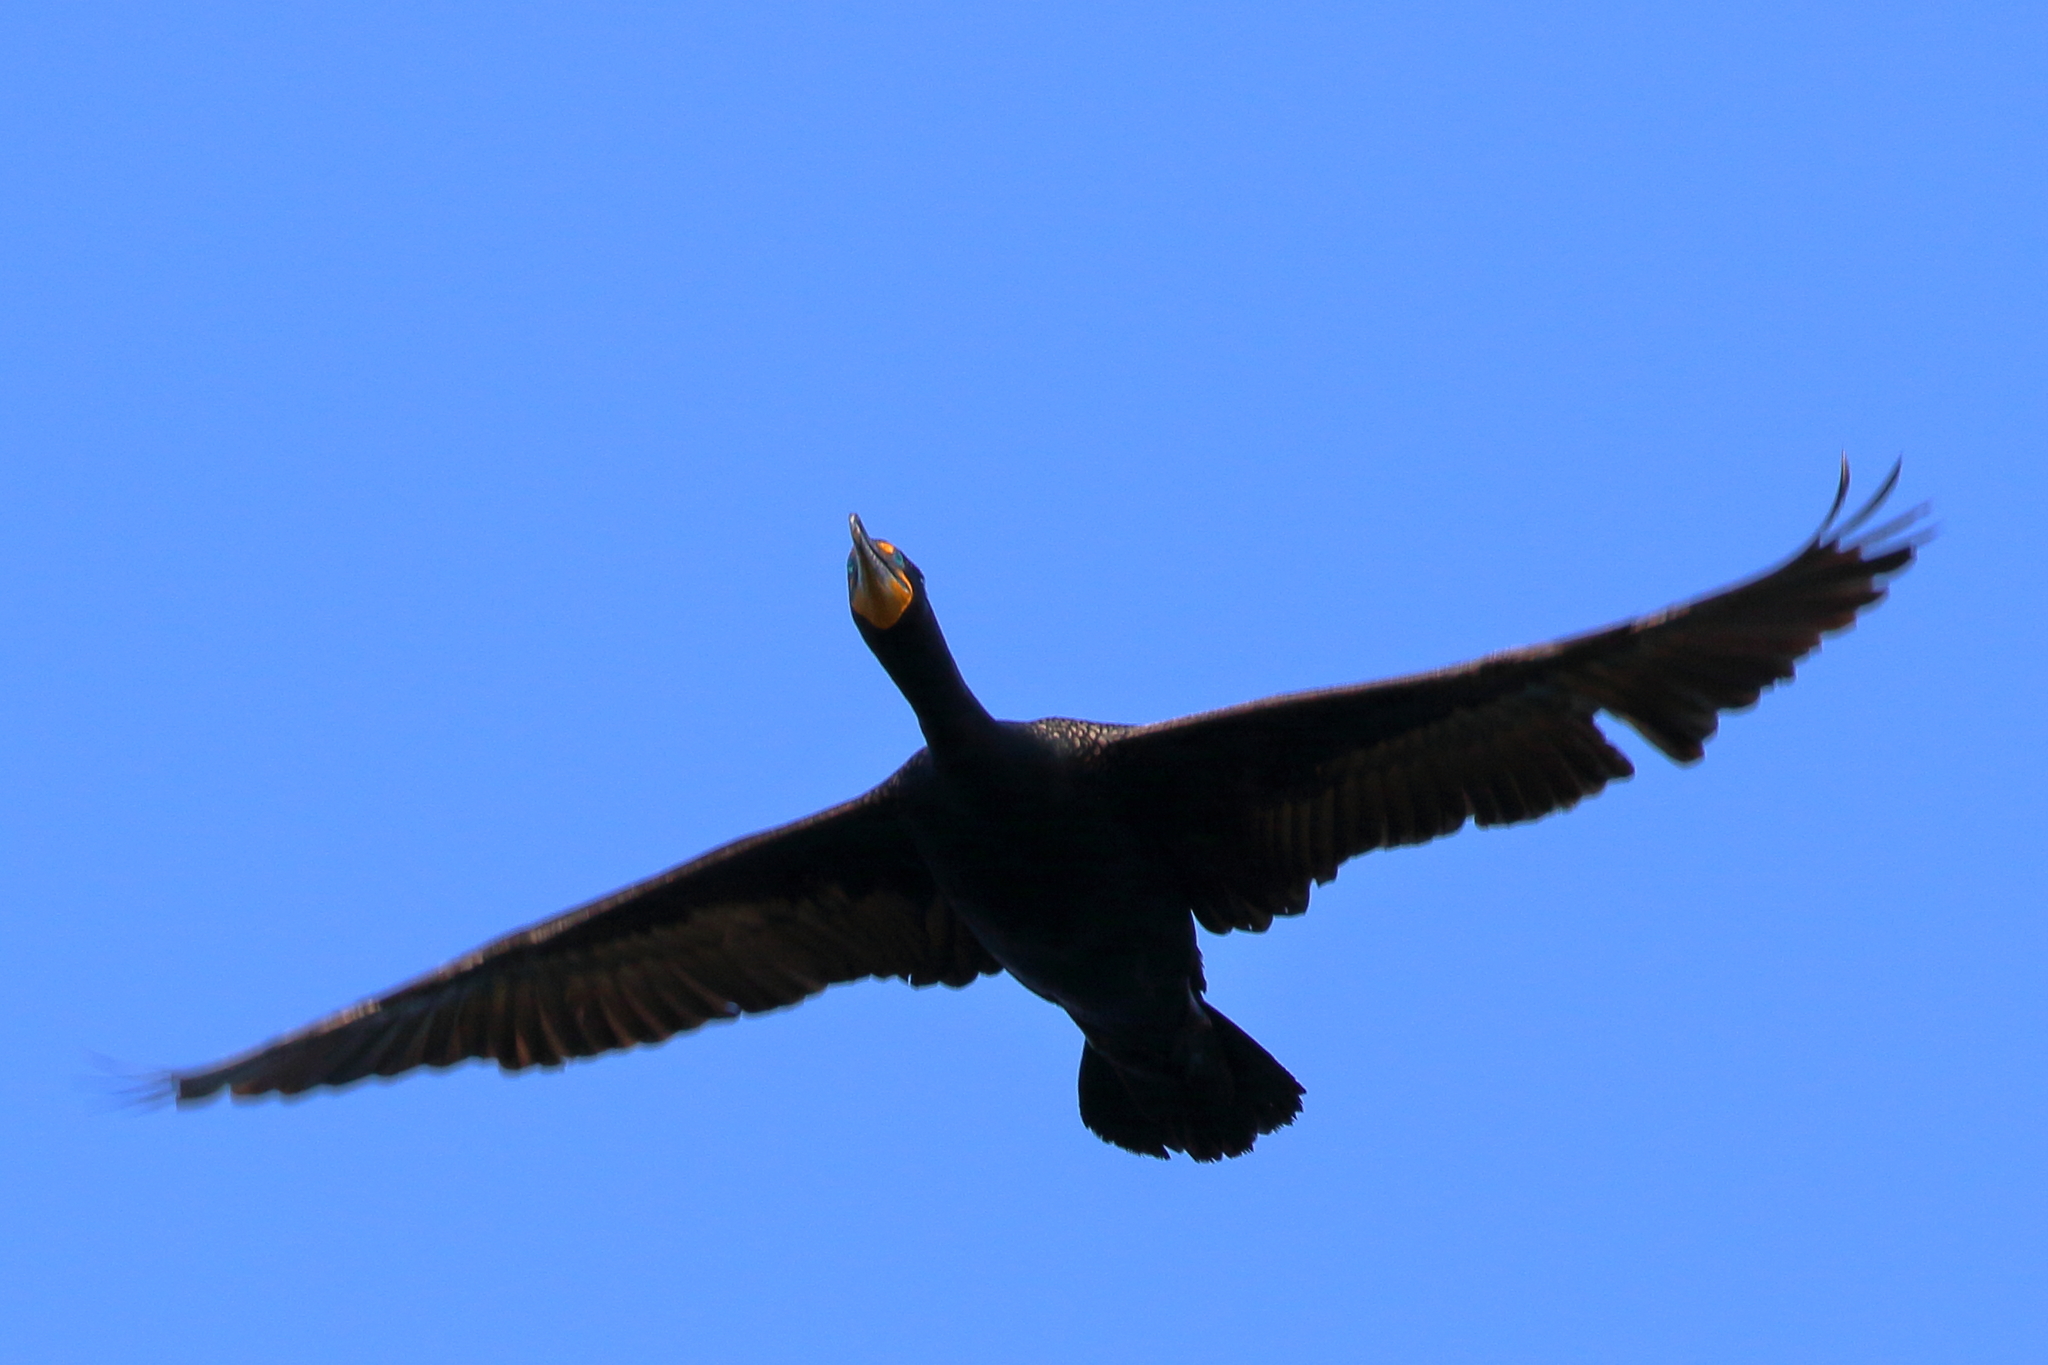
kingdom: Animalia
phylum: Chordata
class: Aves
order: Suliformes
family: Phalacrocoracidae
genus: Phalacrocorax
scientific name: Phalacrocorax auritus
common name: Double-crested cormorant
